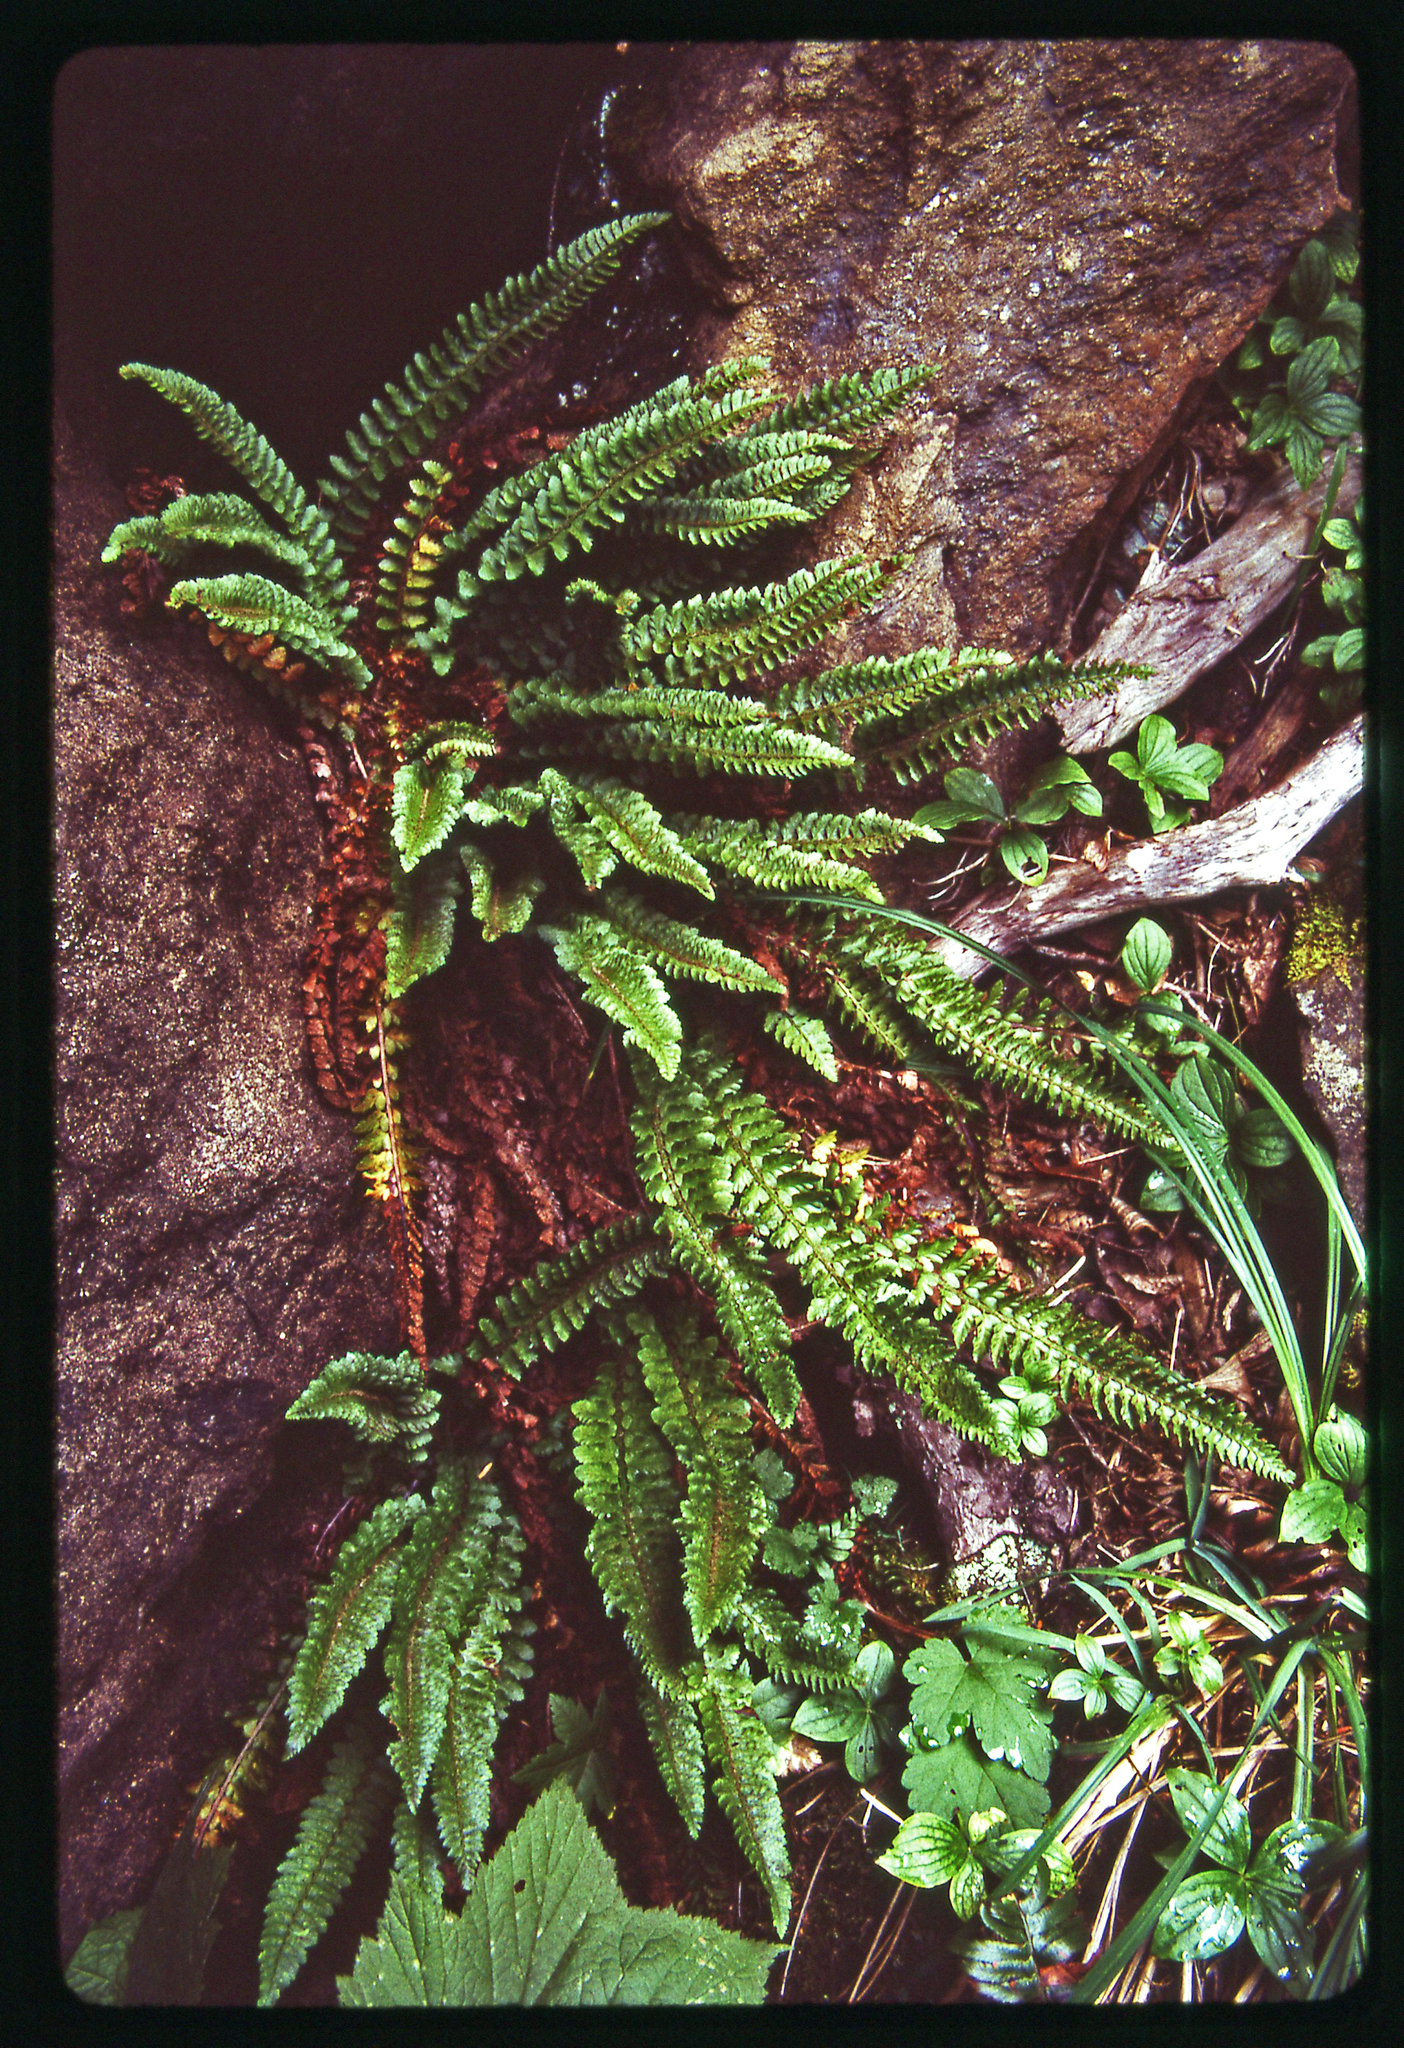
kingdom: Plantae
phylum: Tracheophyta
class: Polypodiopsida
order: Polypodiales
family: Dryopteridaceae
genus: Polystichum
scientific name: Polystichum kruckebergii
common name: Kruckeberg's holly fern
